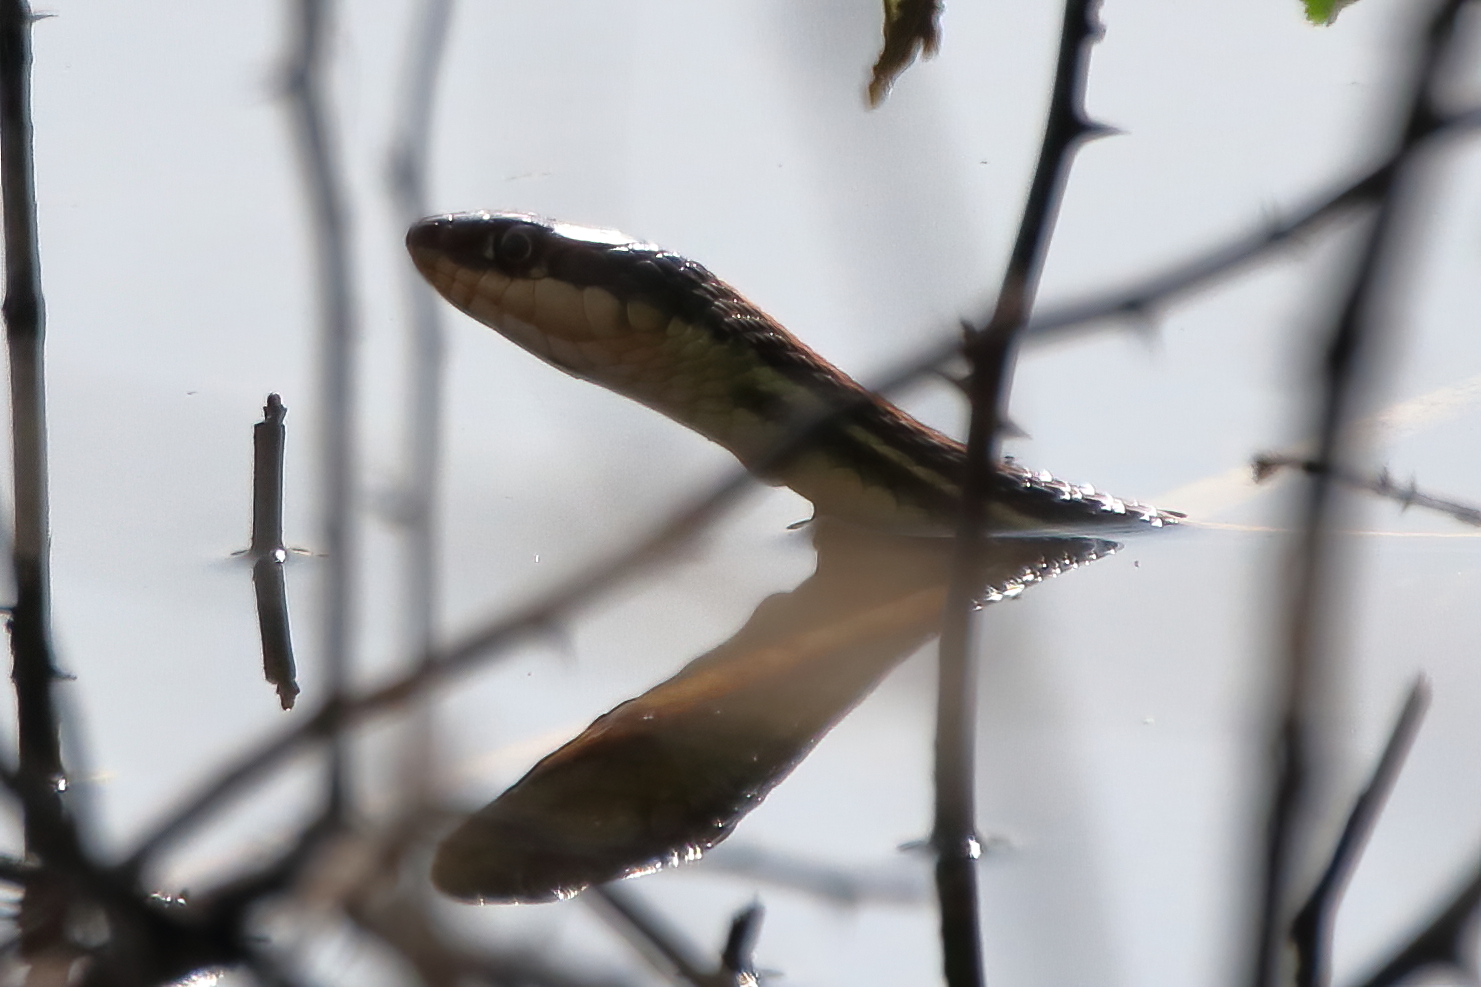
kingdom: Animalia
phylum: Chordata
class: Squamata
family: Colubridae
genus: Thamnophis
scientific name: Thamnophis proximus
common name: Western ribbon snake
